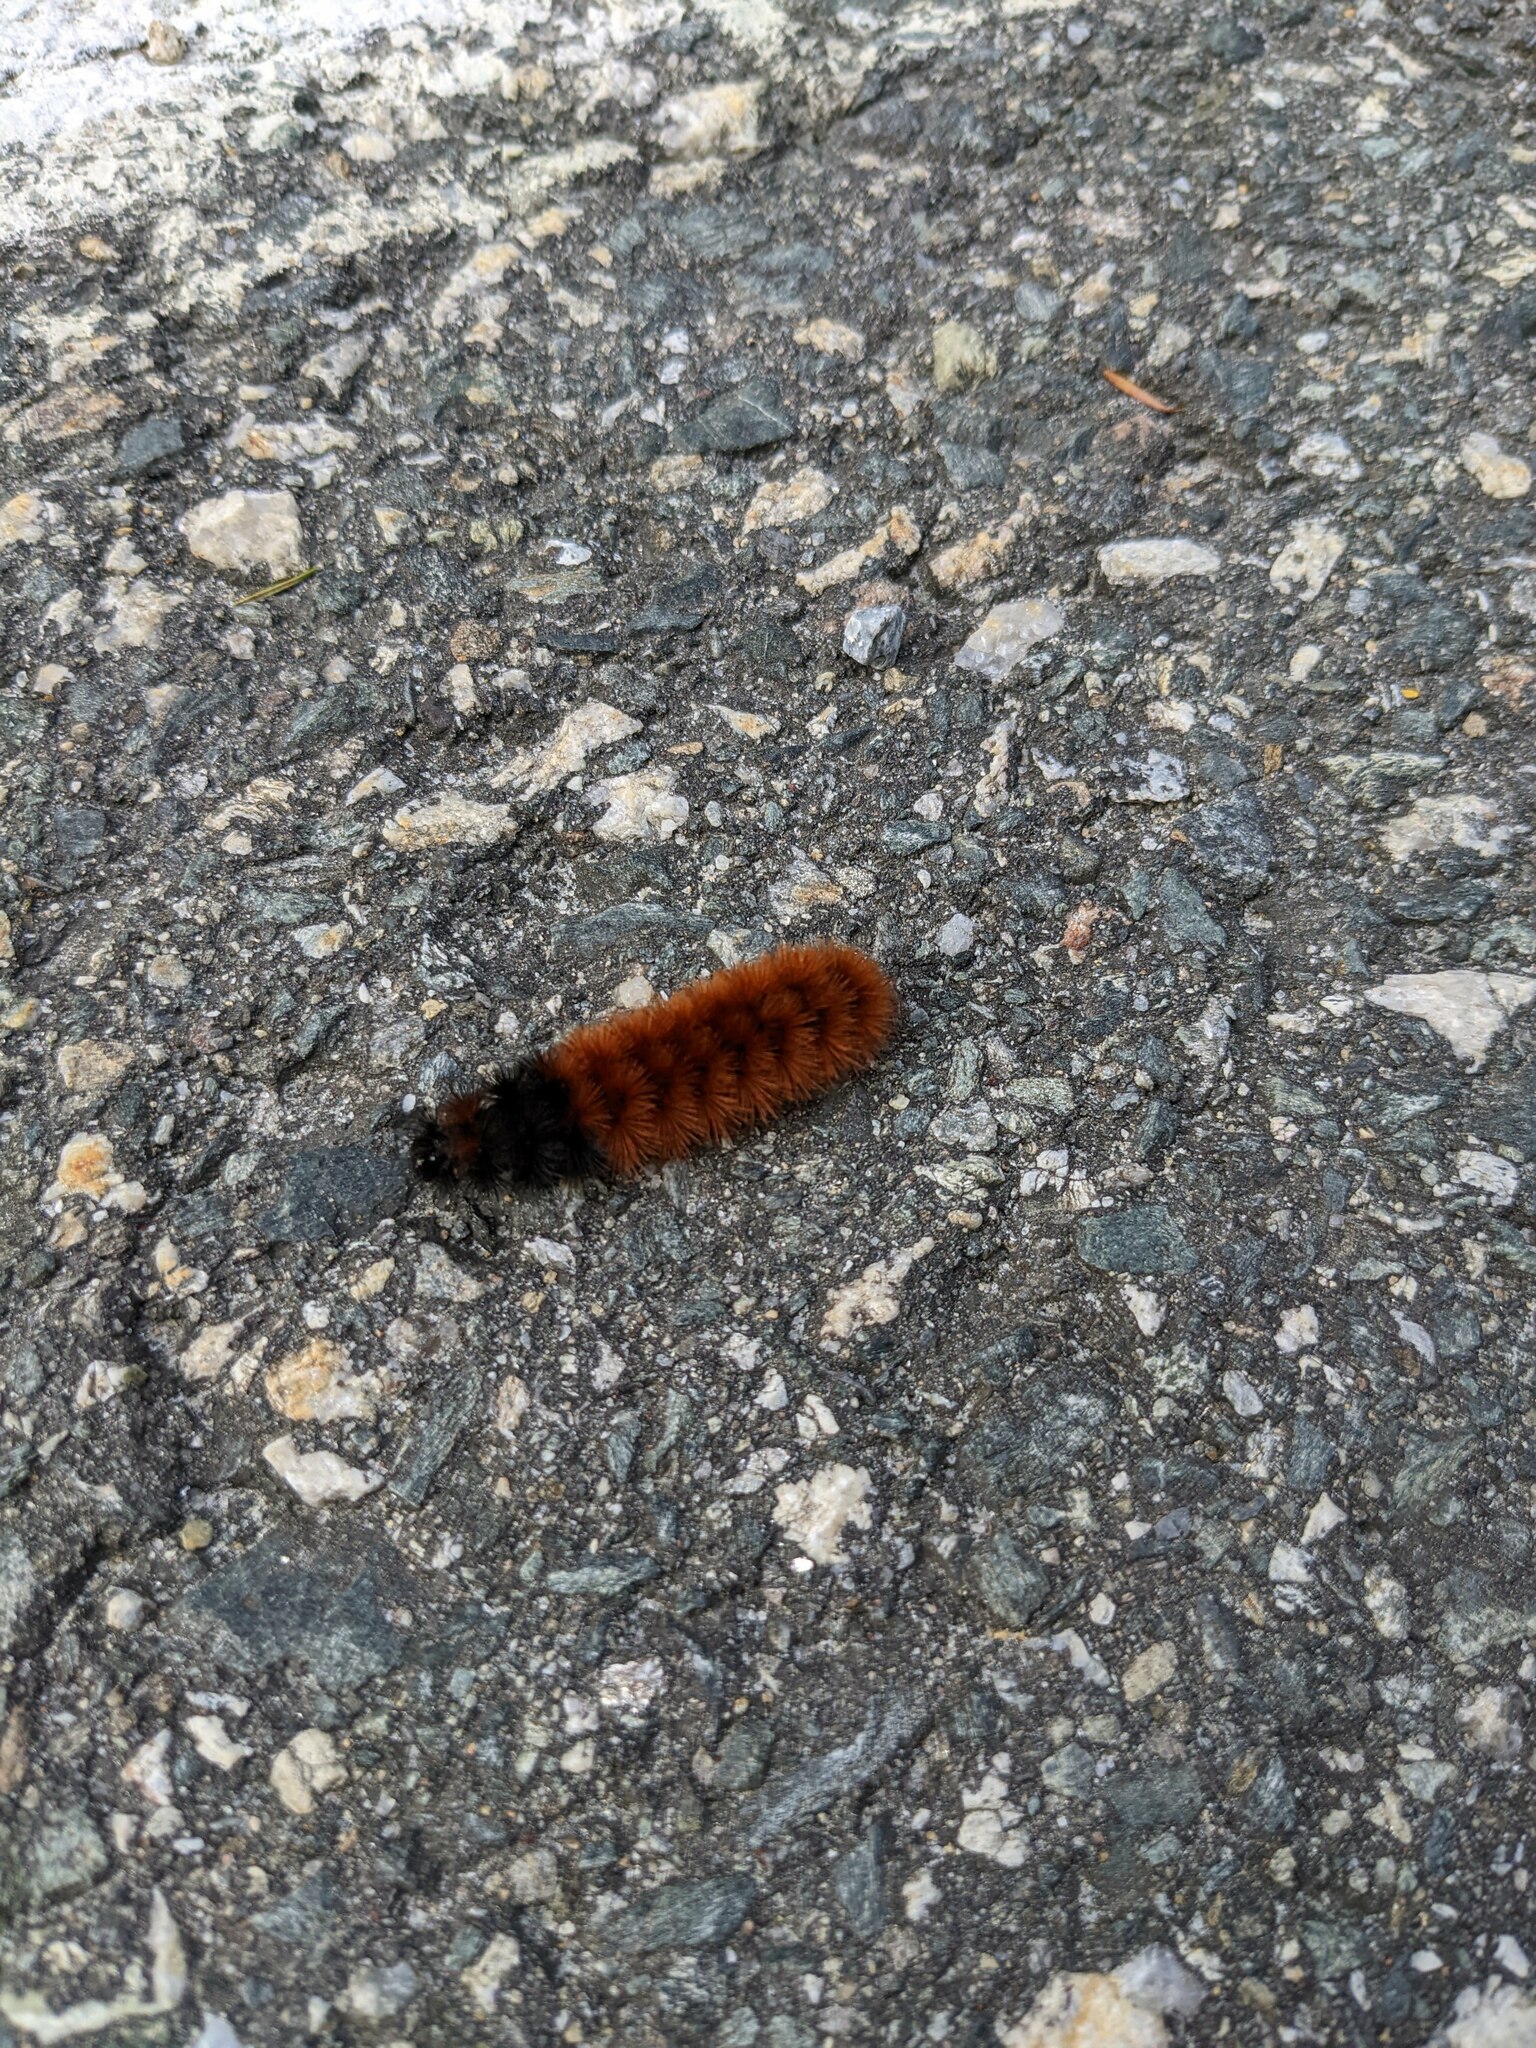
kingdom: Animalia
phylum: Arthropoda
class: Insecta
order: Lepidoptera
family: Erebidae
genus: Pyrrharctia
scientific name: Pyrrharctia isabella
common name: Isabella tiger moth
